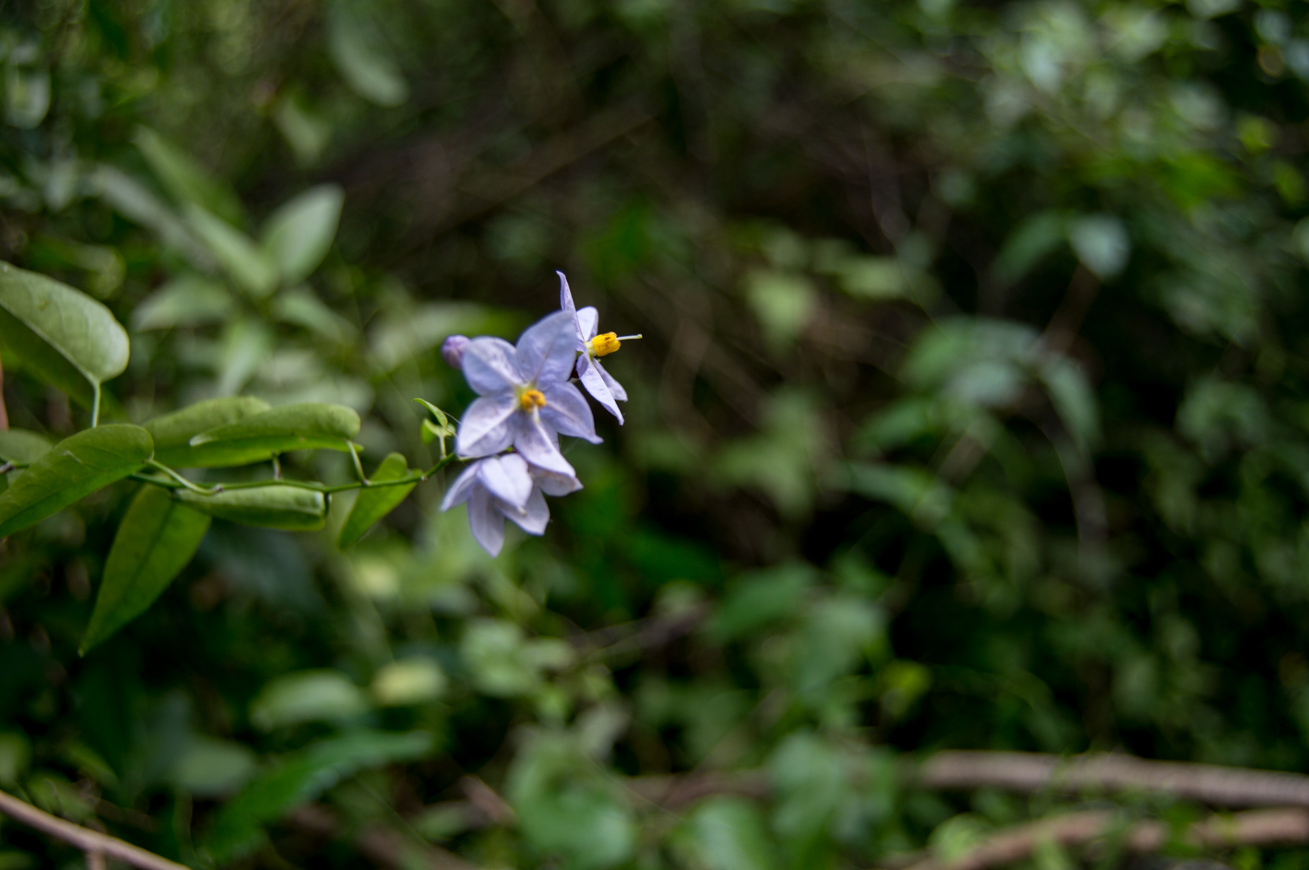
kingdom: Plantae
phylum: Tracheophyta
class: Magnoliopsida
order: Solanales
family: Solanaceae
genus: Solanum
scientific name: Solanum laxum
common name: Nightshade
